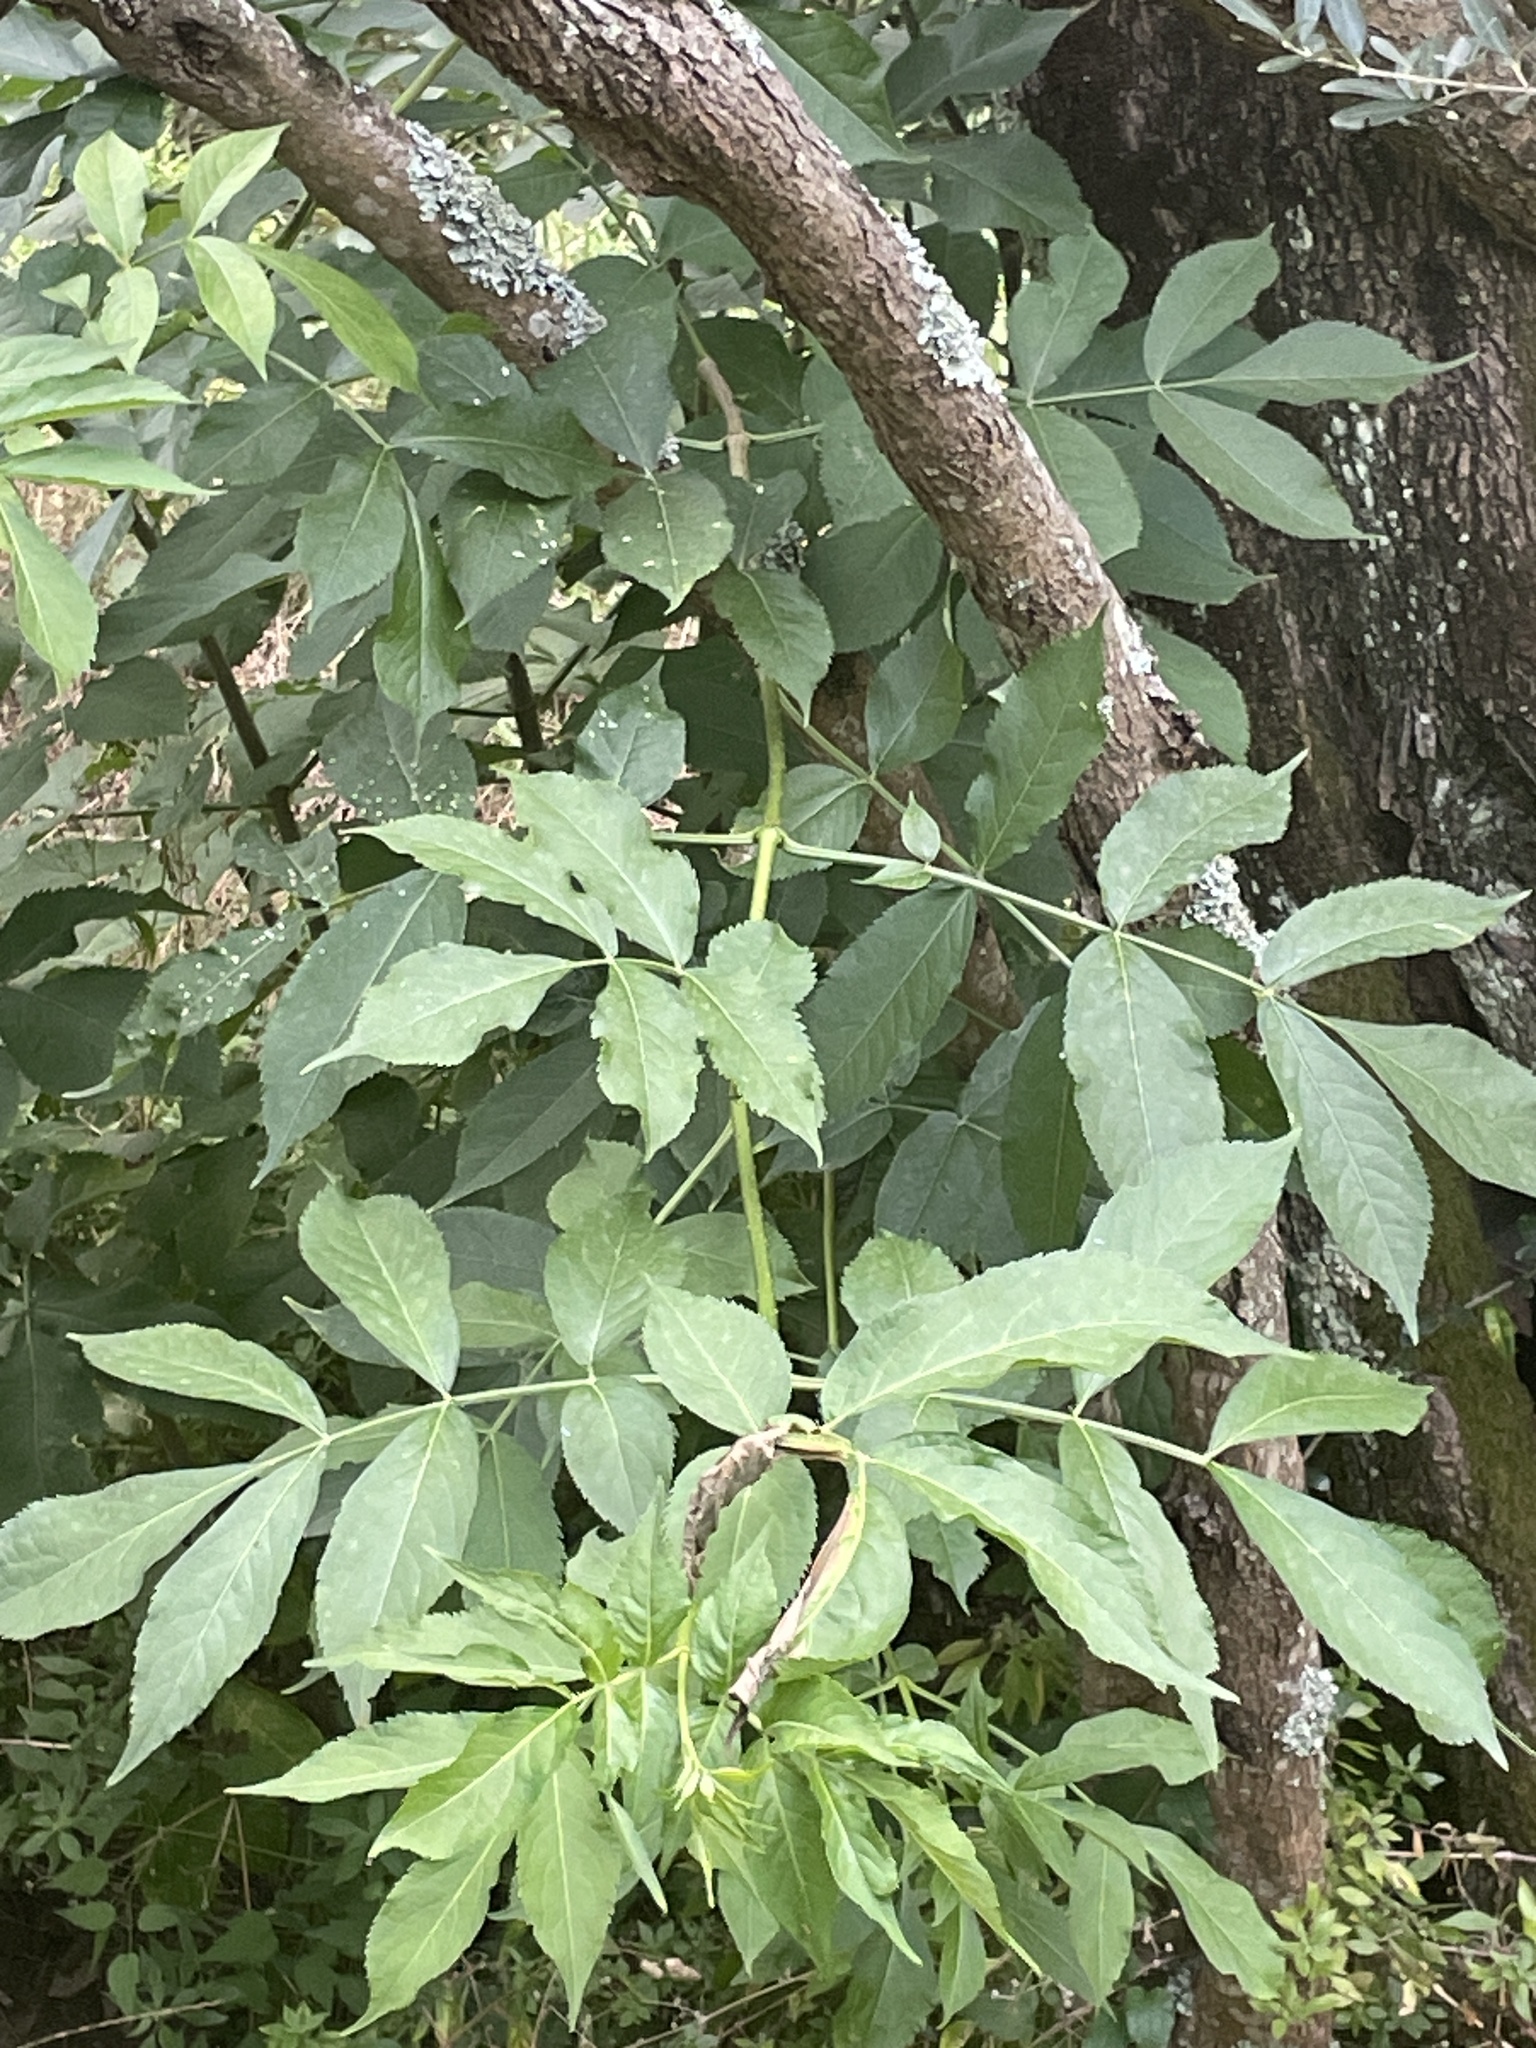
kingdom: Plantae
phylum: Tracheophyta
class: Magnoliopsida
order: Dipsacales
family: Viburnaceae
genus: Sambucus
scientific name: Sambucus nigra
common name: Elder
